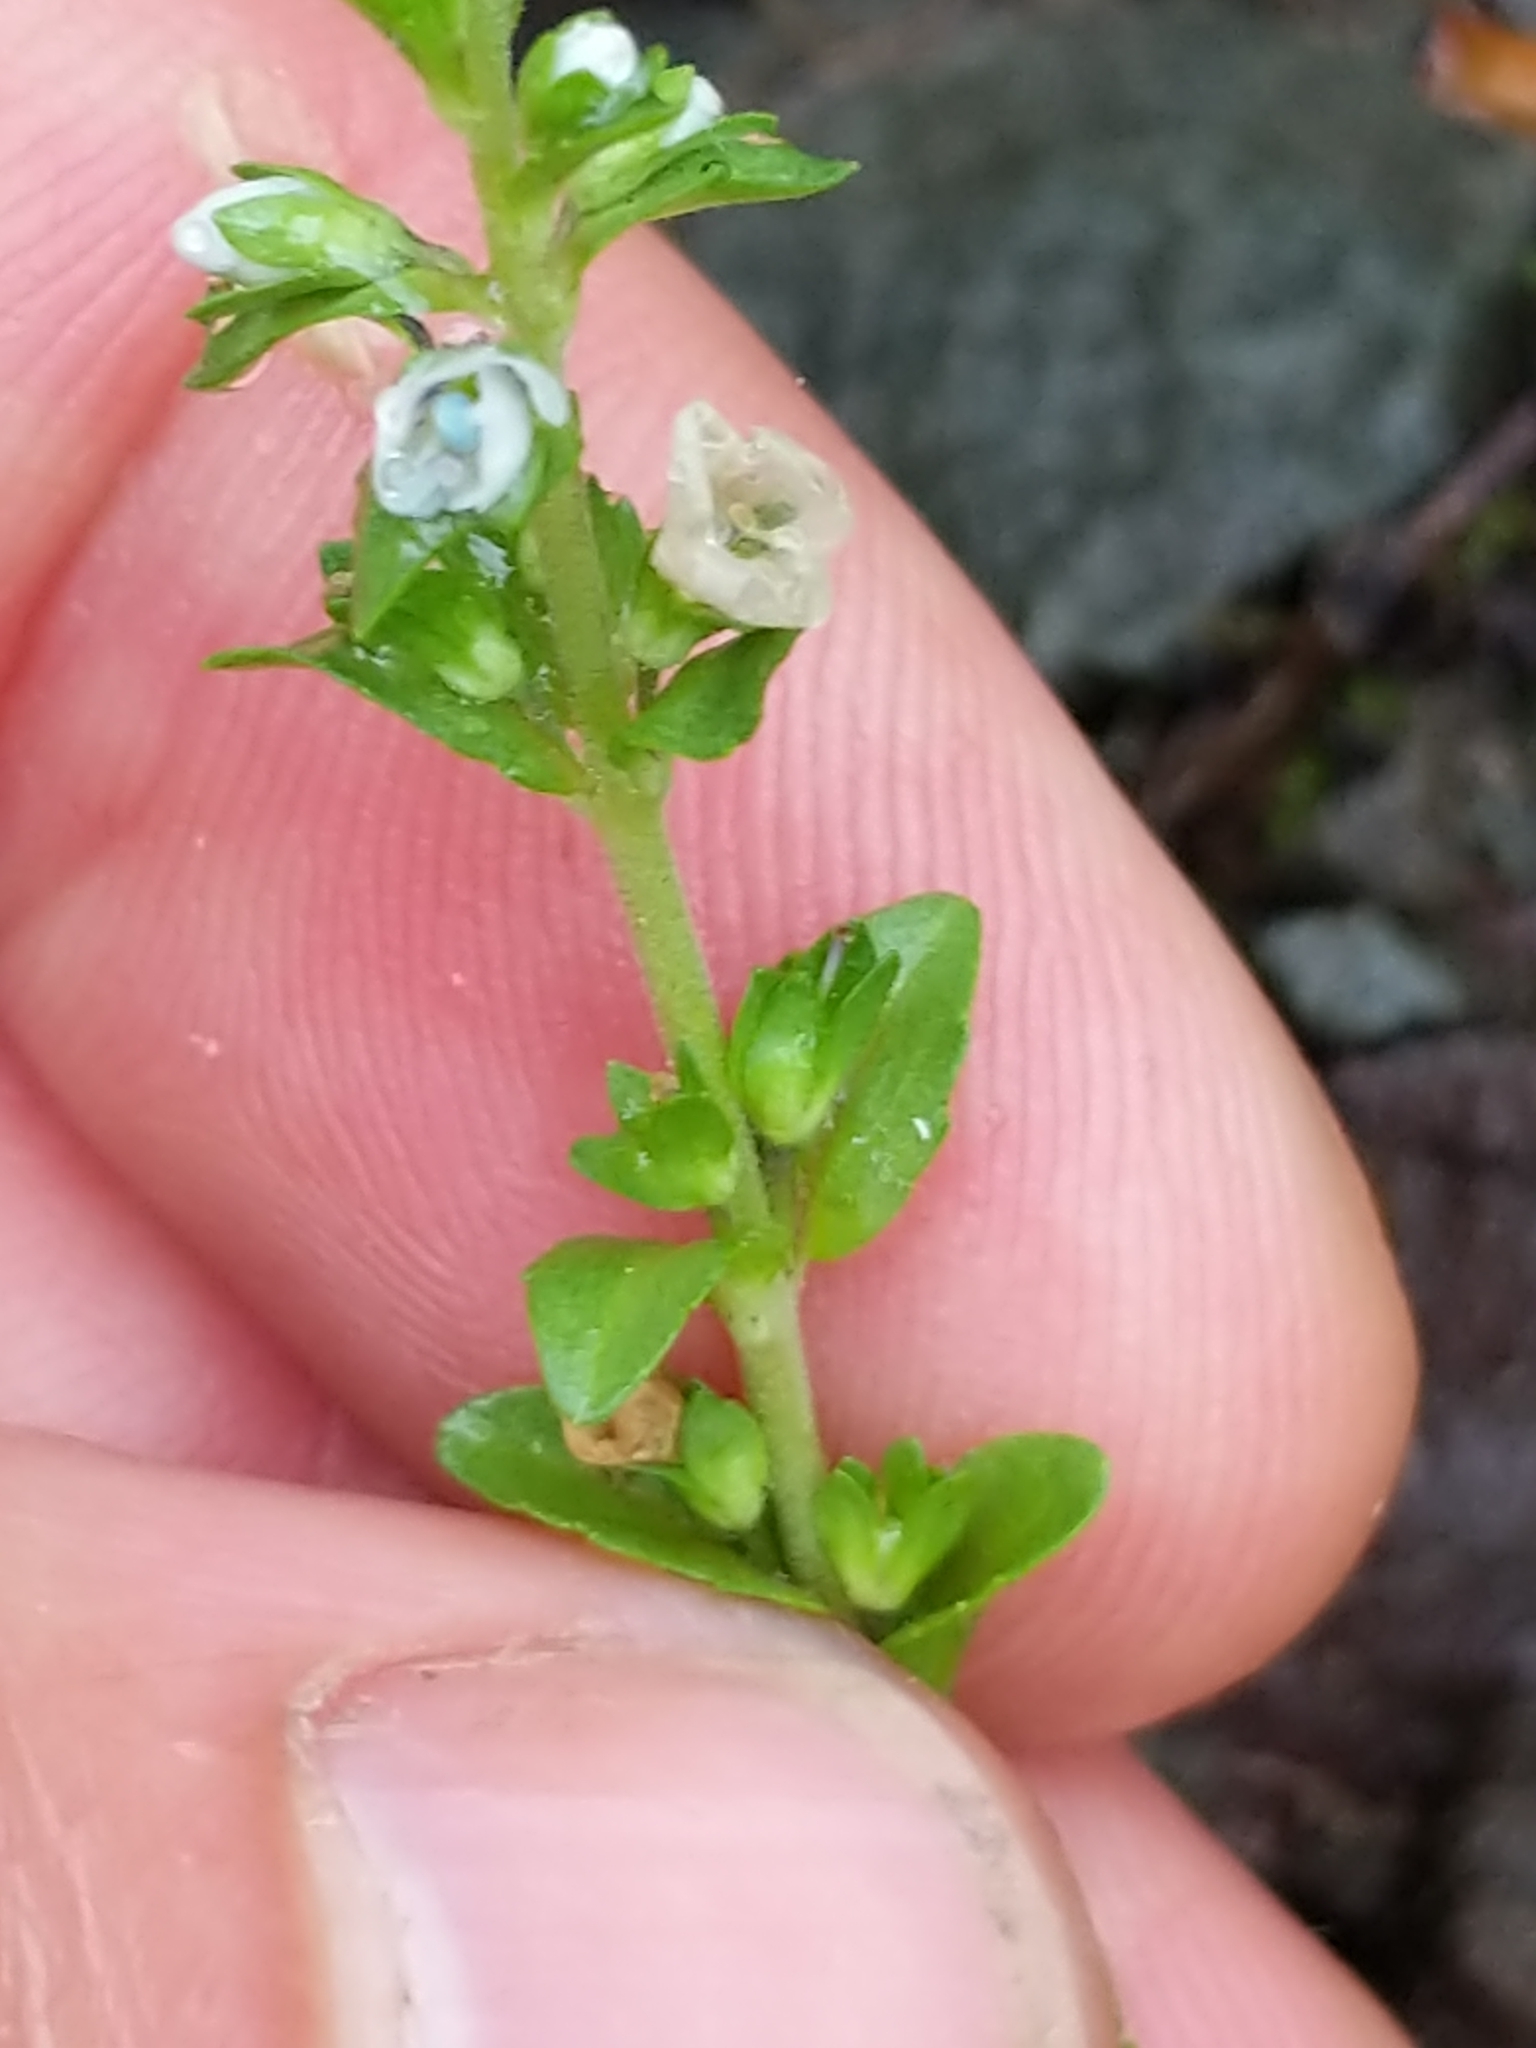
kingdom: Plantae
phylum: Tracheophyta
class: Magnoliopsida
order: Lamiales
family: Plantaginaceae
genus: Veronica
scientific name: Veronica serpyllifolia
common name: Thyme-leaved speedwell
